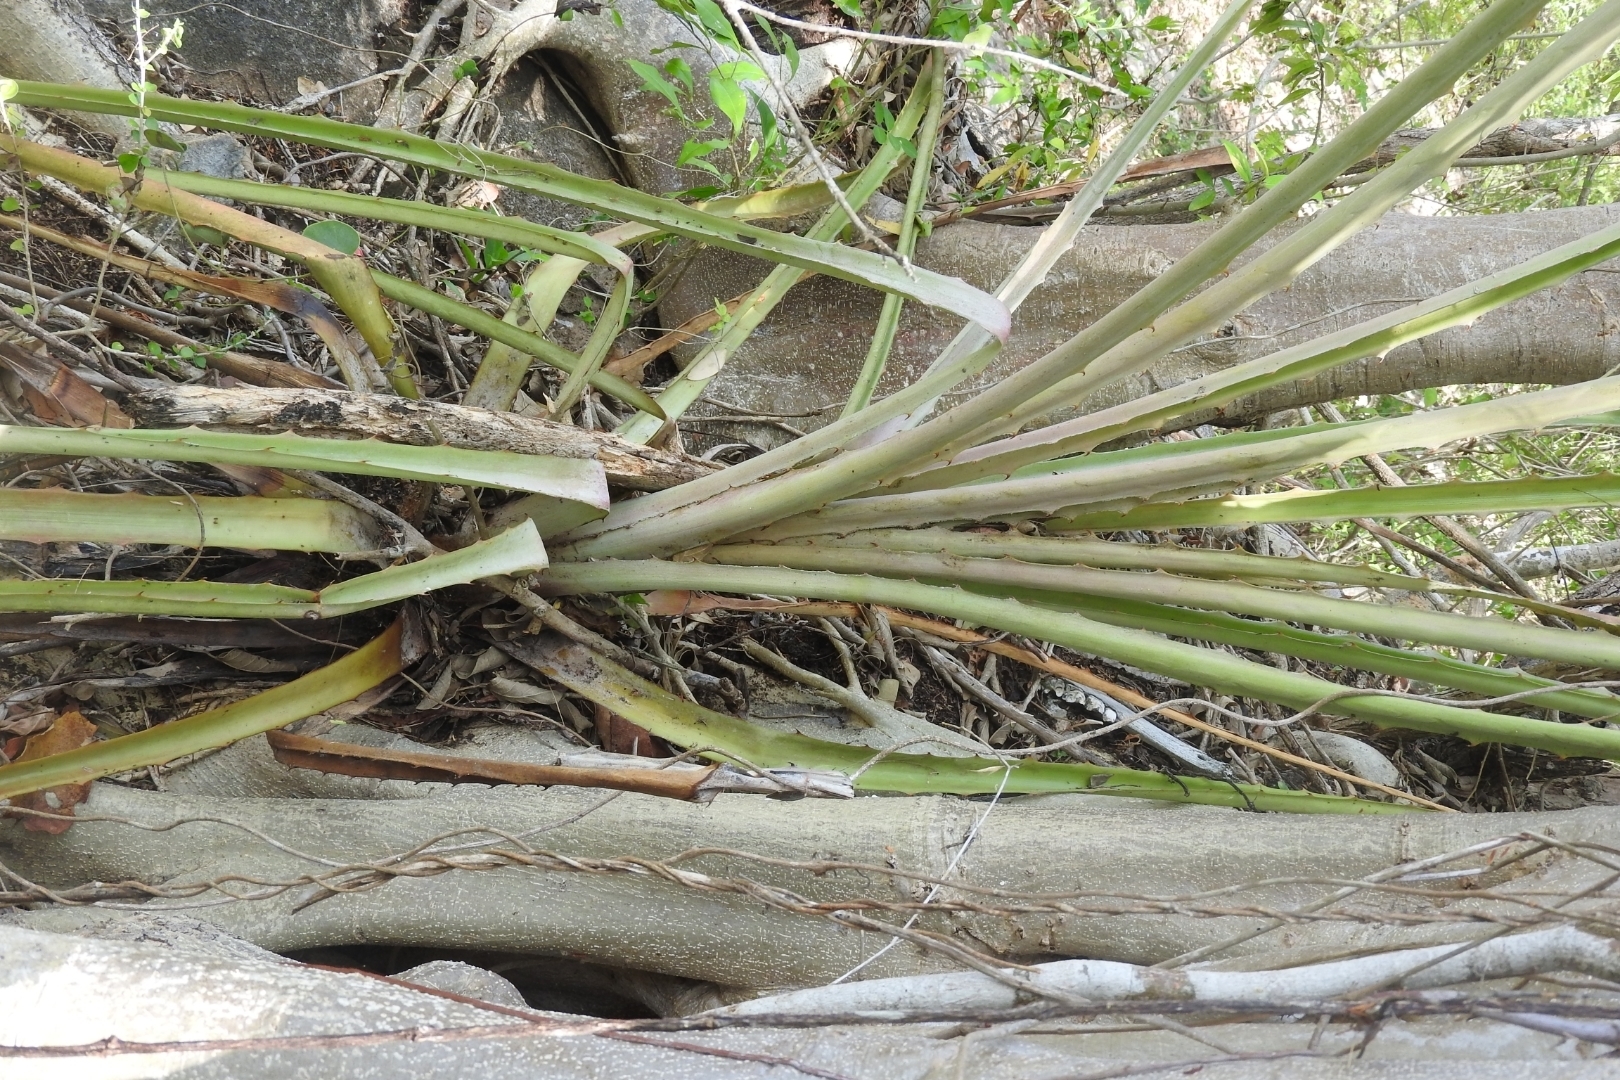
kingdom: Plantae
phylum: Tracheophyta
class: Liliopsida
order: Poales
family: Bromeliaceae
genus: Bromelia
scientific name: Bromelia pinguin
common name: Pinguin
